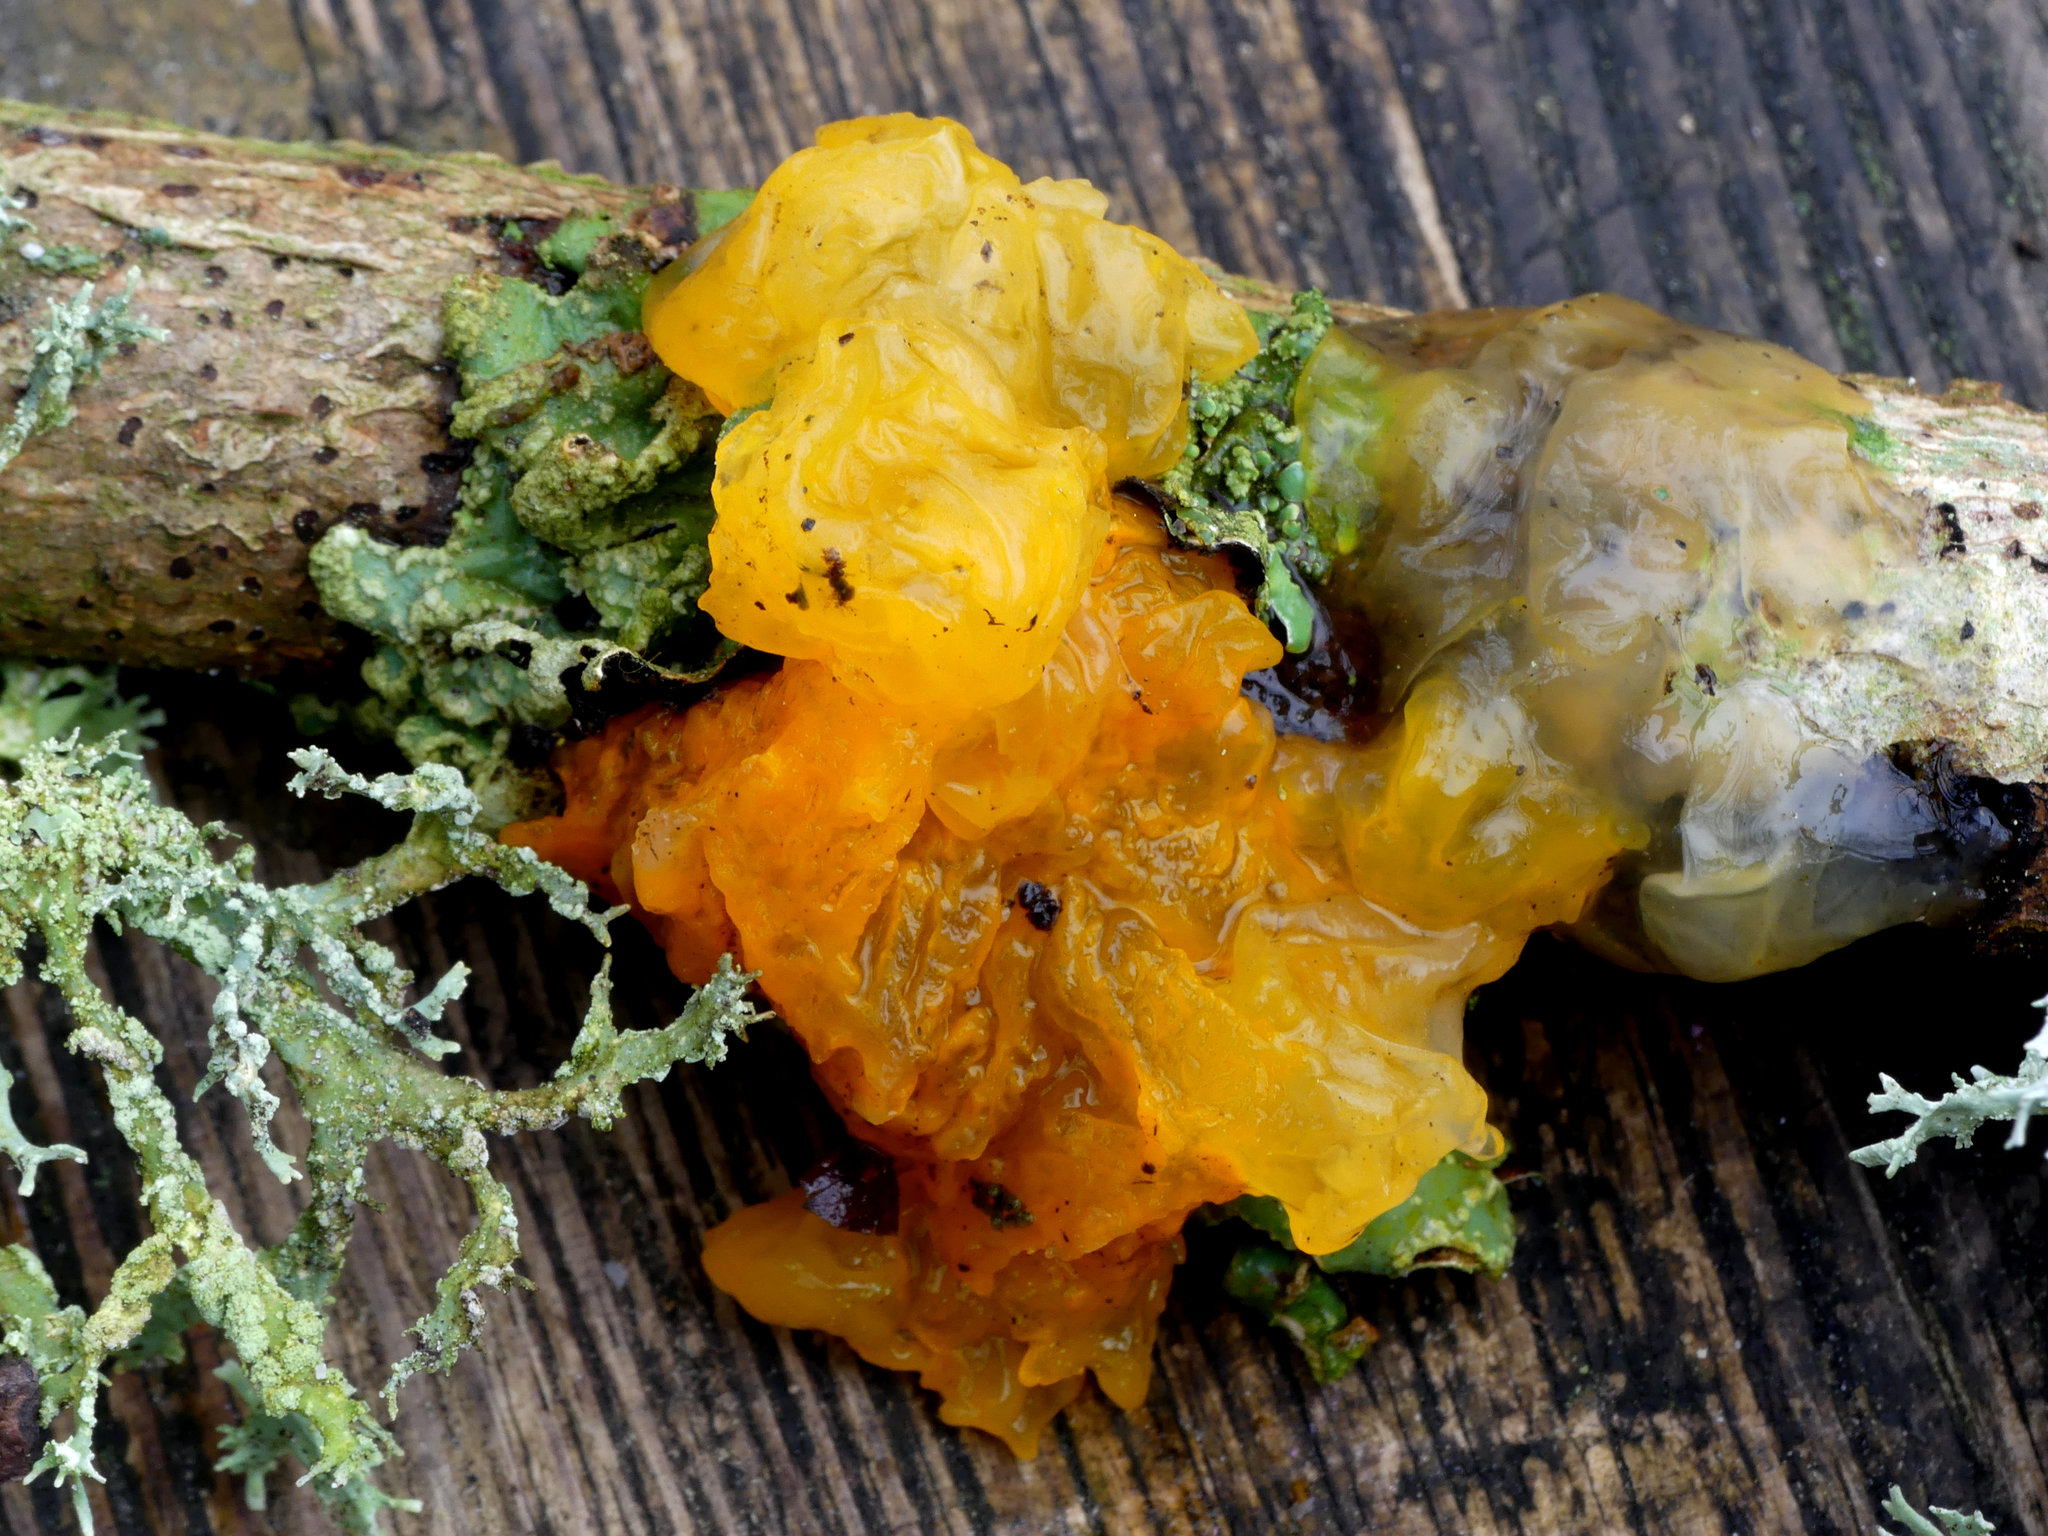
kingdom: Fungi
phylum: Basidiomycota
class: Tremellomycetes
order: Tremellales
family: Tremellaceae
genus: Tremella
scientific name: Tremella mesenterica
